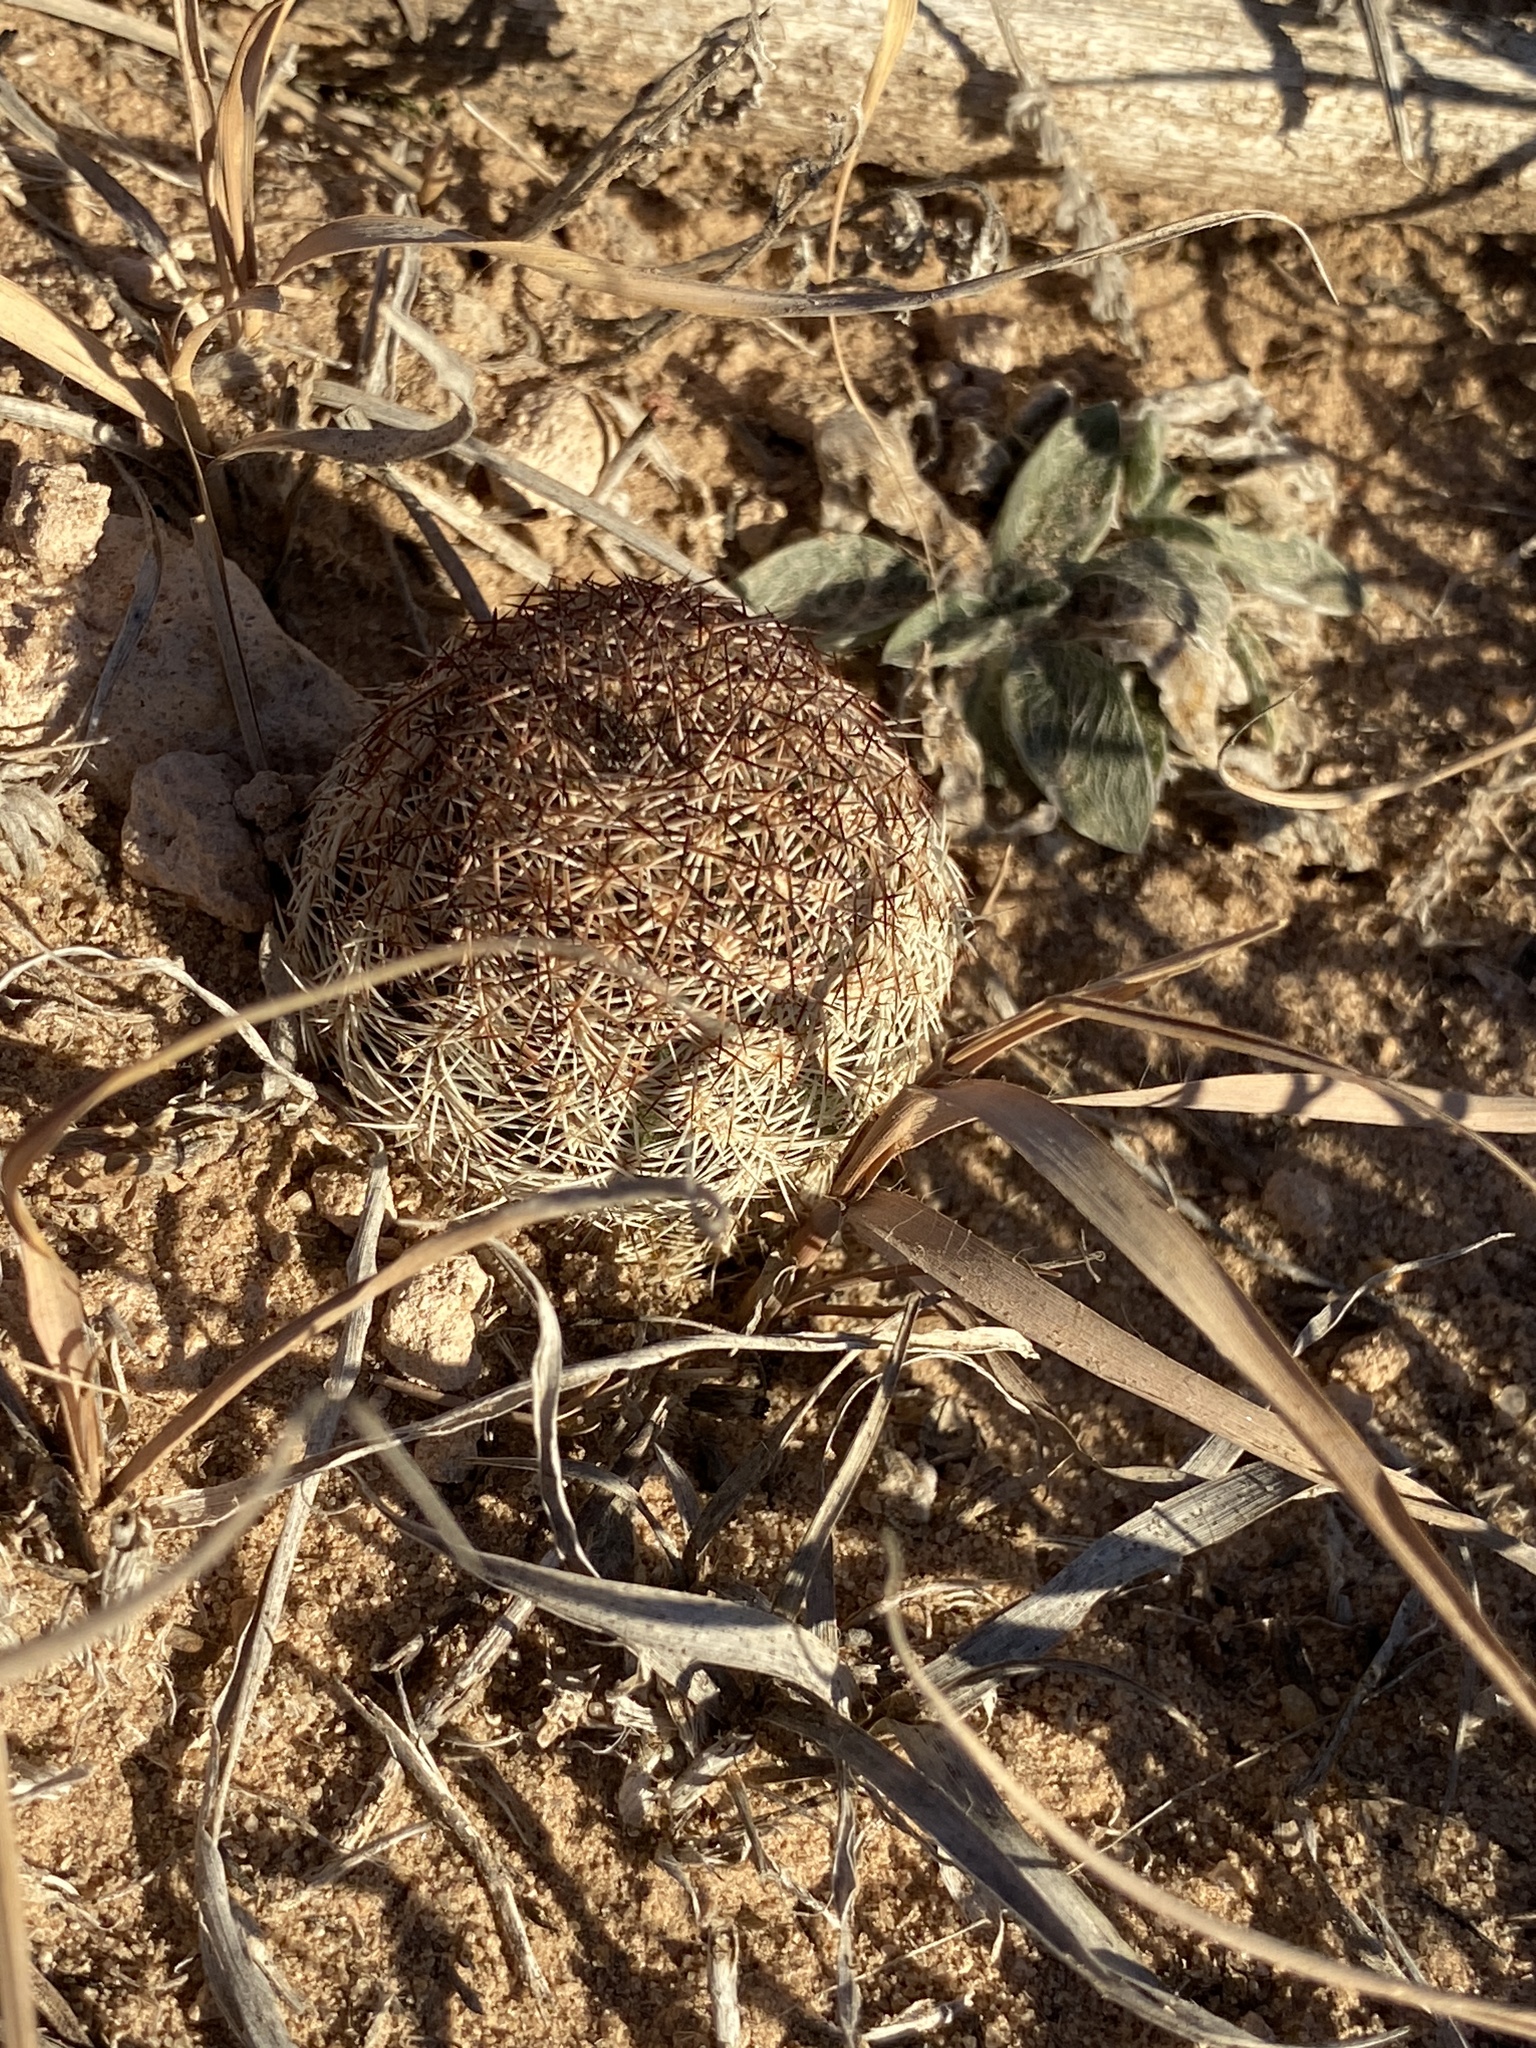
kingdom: Plantae
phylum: Tracheophyta
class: Magnoliopsida
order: Caryophyllales
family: Cactaceae
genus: Echinocereus
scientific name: Echinocereus reichenbachii
